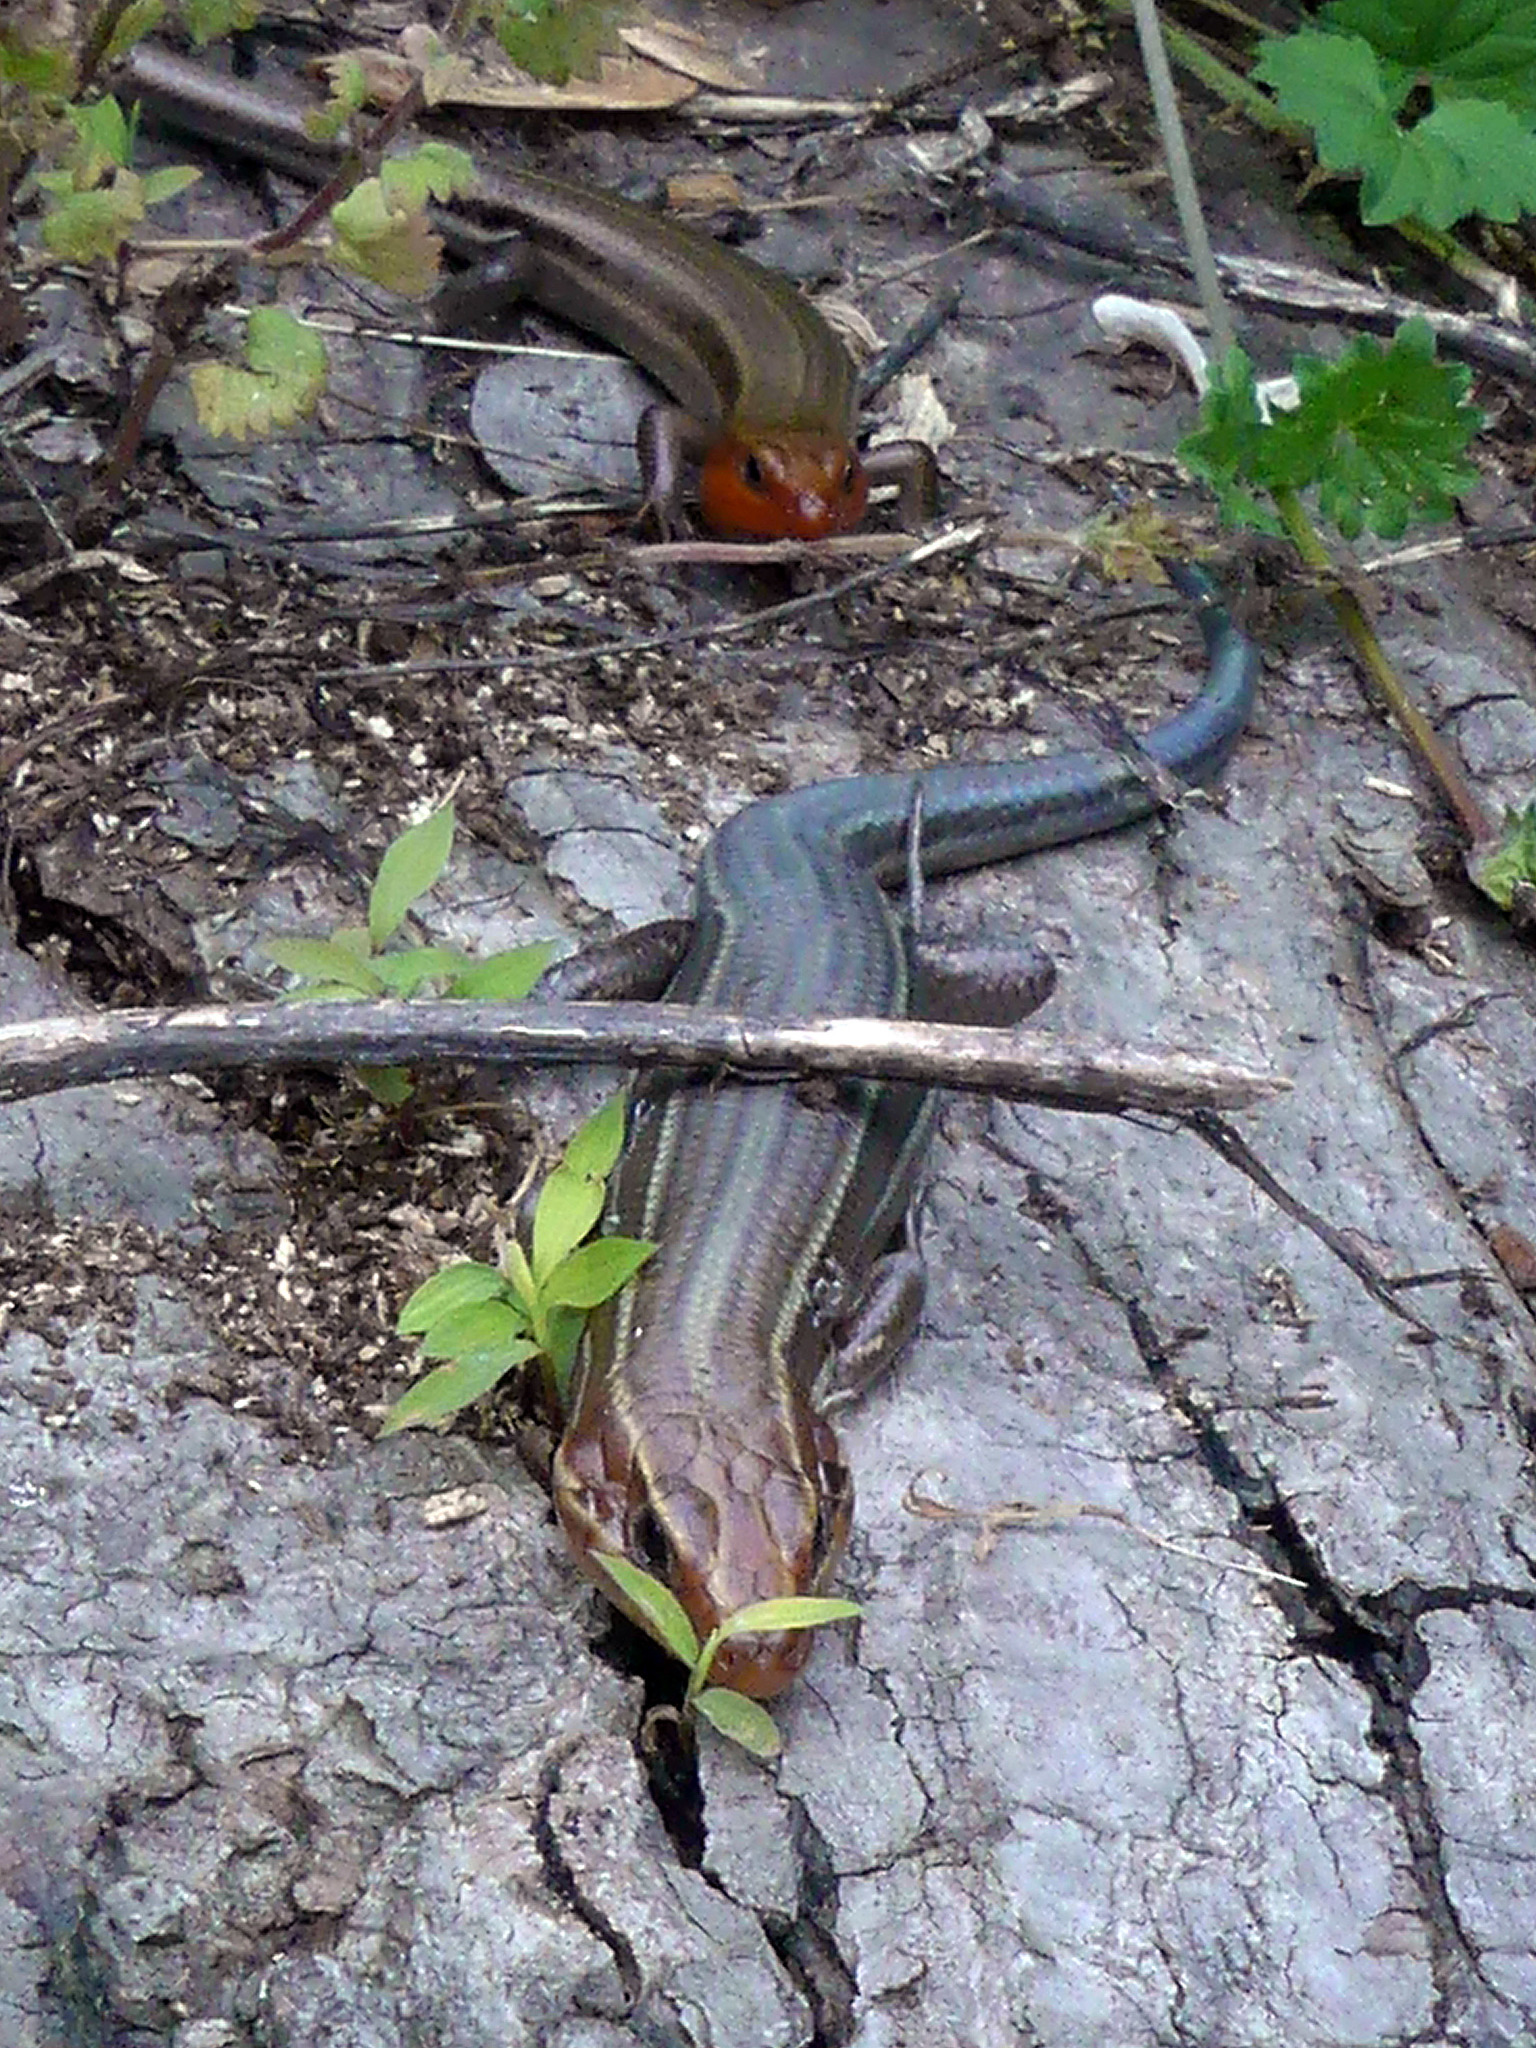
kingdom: Animalia
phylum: Chordata
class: Squamata
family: Scincidae
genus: Plestiodon
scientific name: Plestiodon laticeps
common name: Broadhead skink
